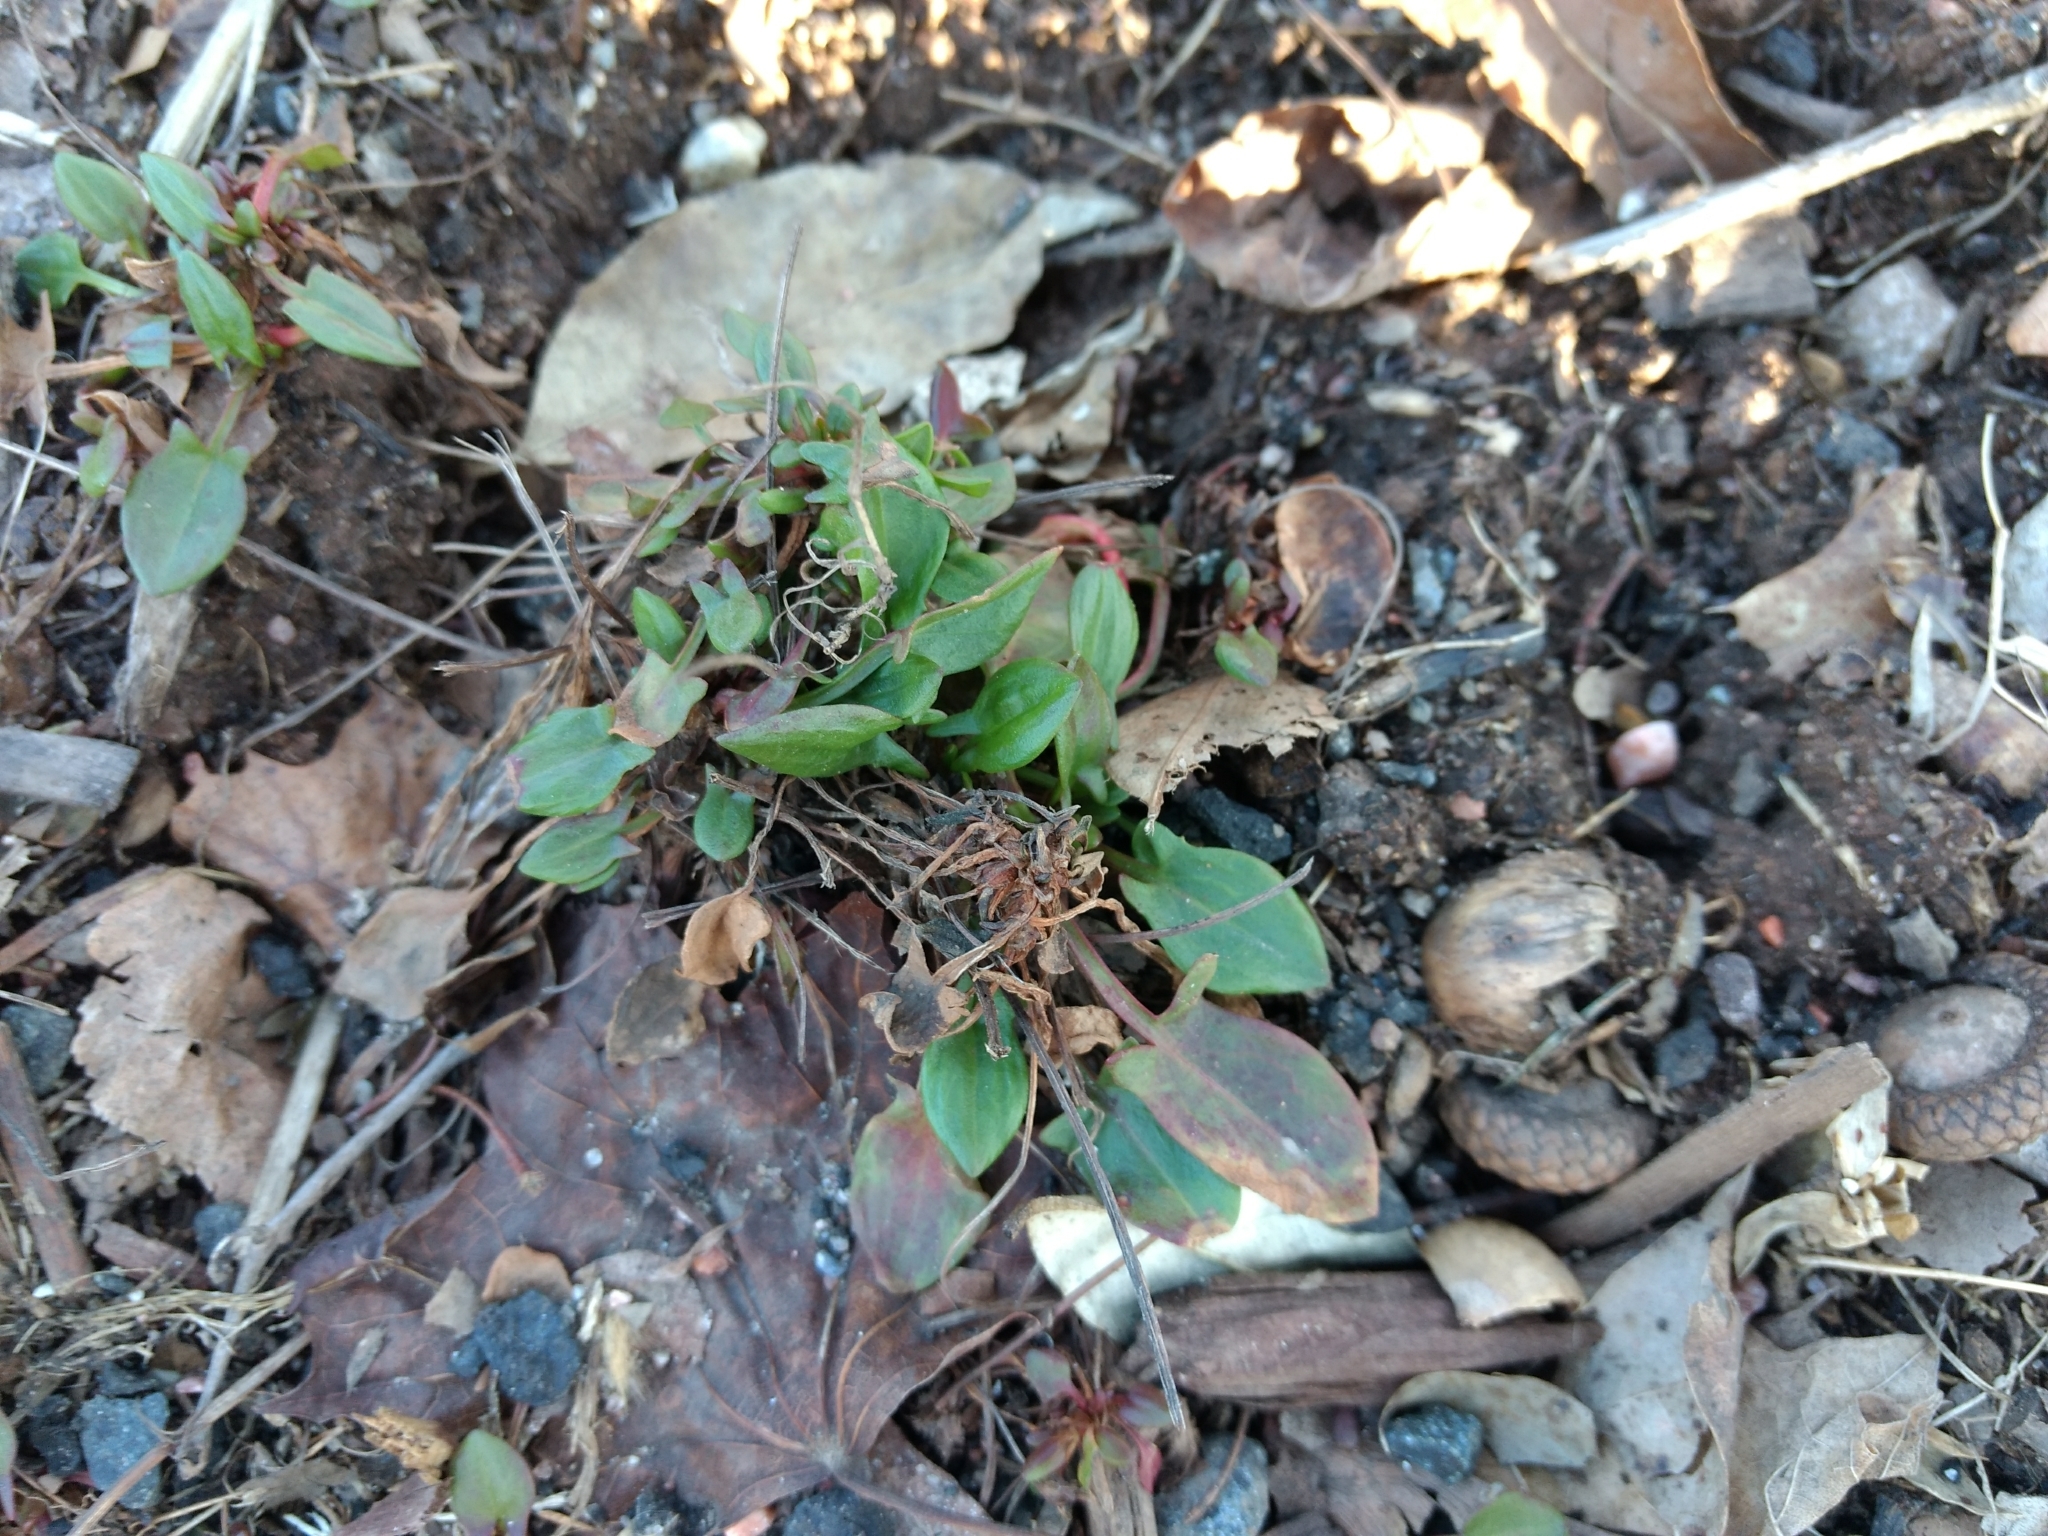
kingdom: Plantae
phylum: Tracheophyta
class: Magnoliopsida
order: Caryophyllales
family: Polygonaceae
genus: Rumex
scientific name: Rumex acetosella
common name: Common sheep sorrel
